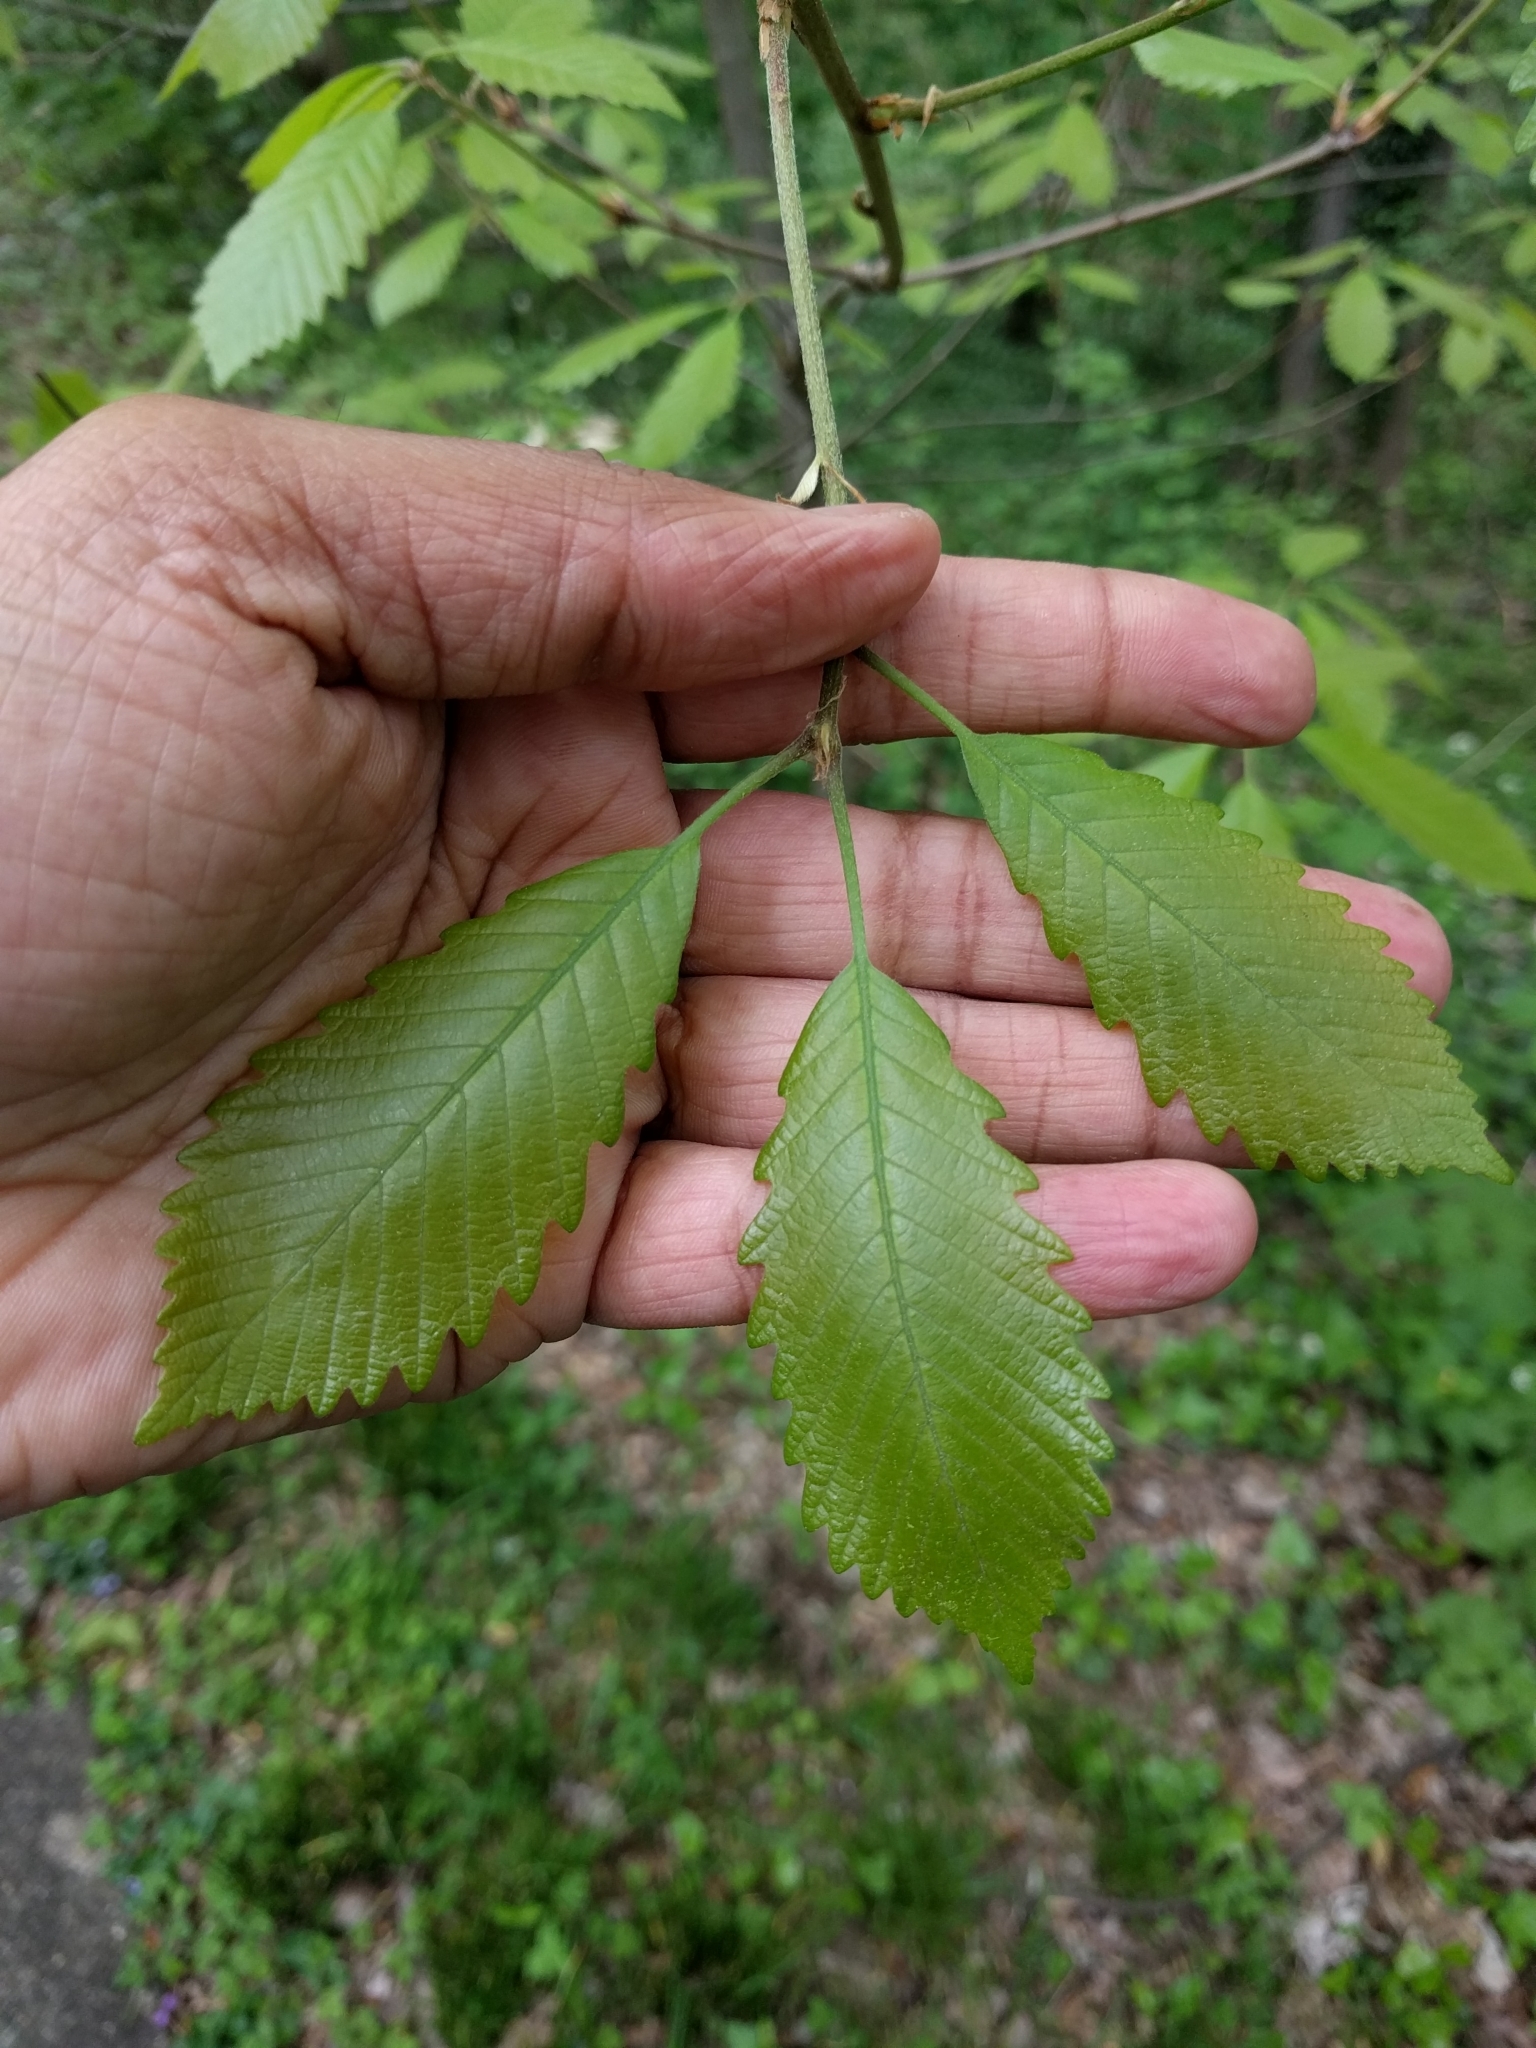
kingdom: Plantae
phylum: Tracheophyta
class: Magnoliopsida
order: Fagales
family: Fagaceae
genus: Quercus
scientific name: Quercus montana
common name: Chestnut oak
